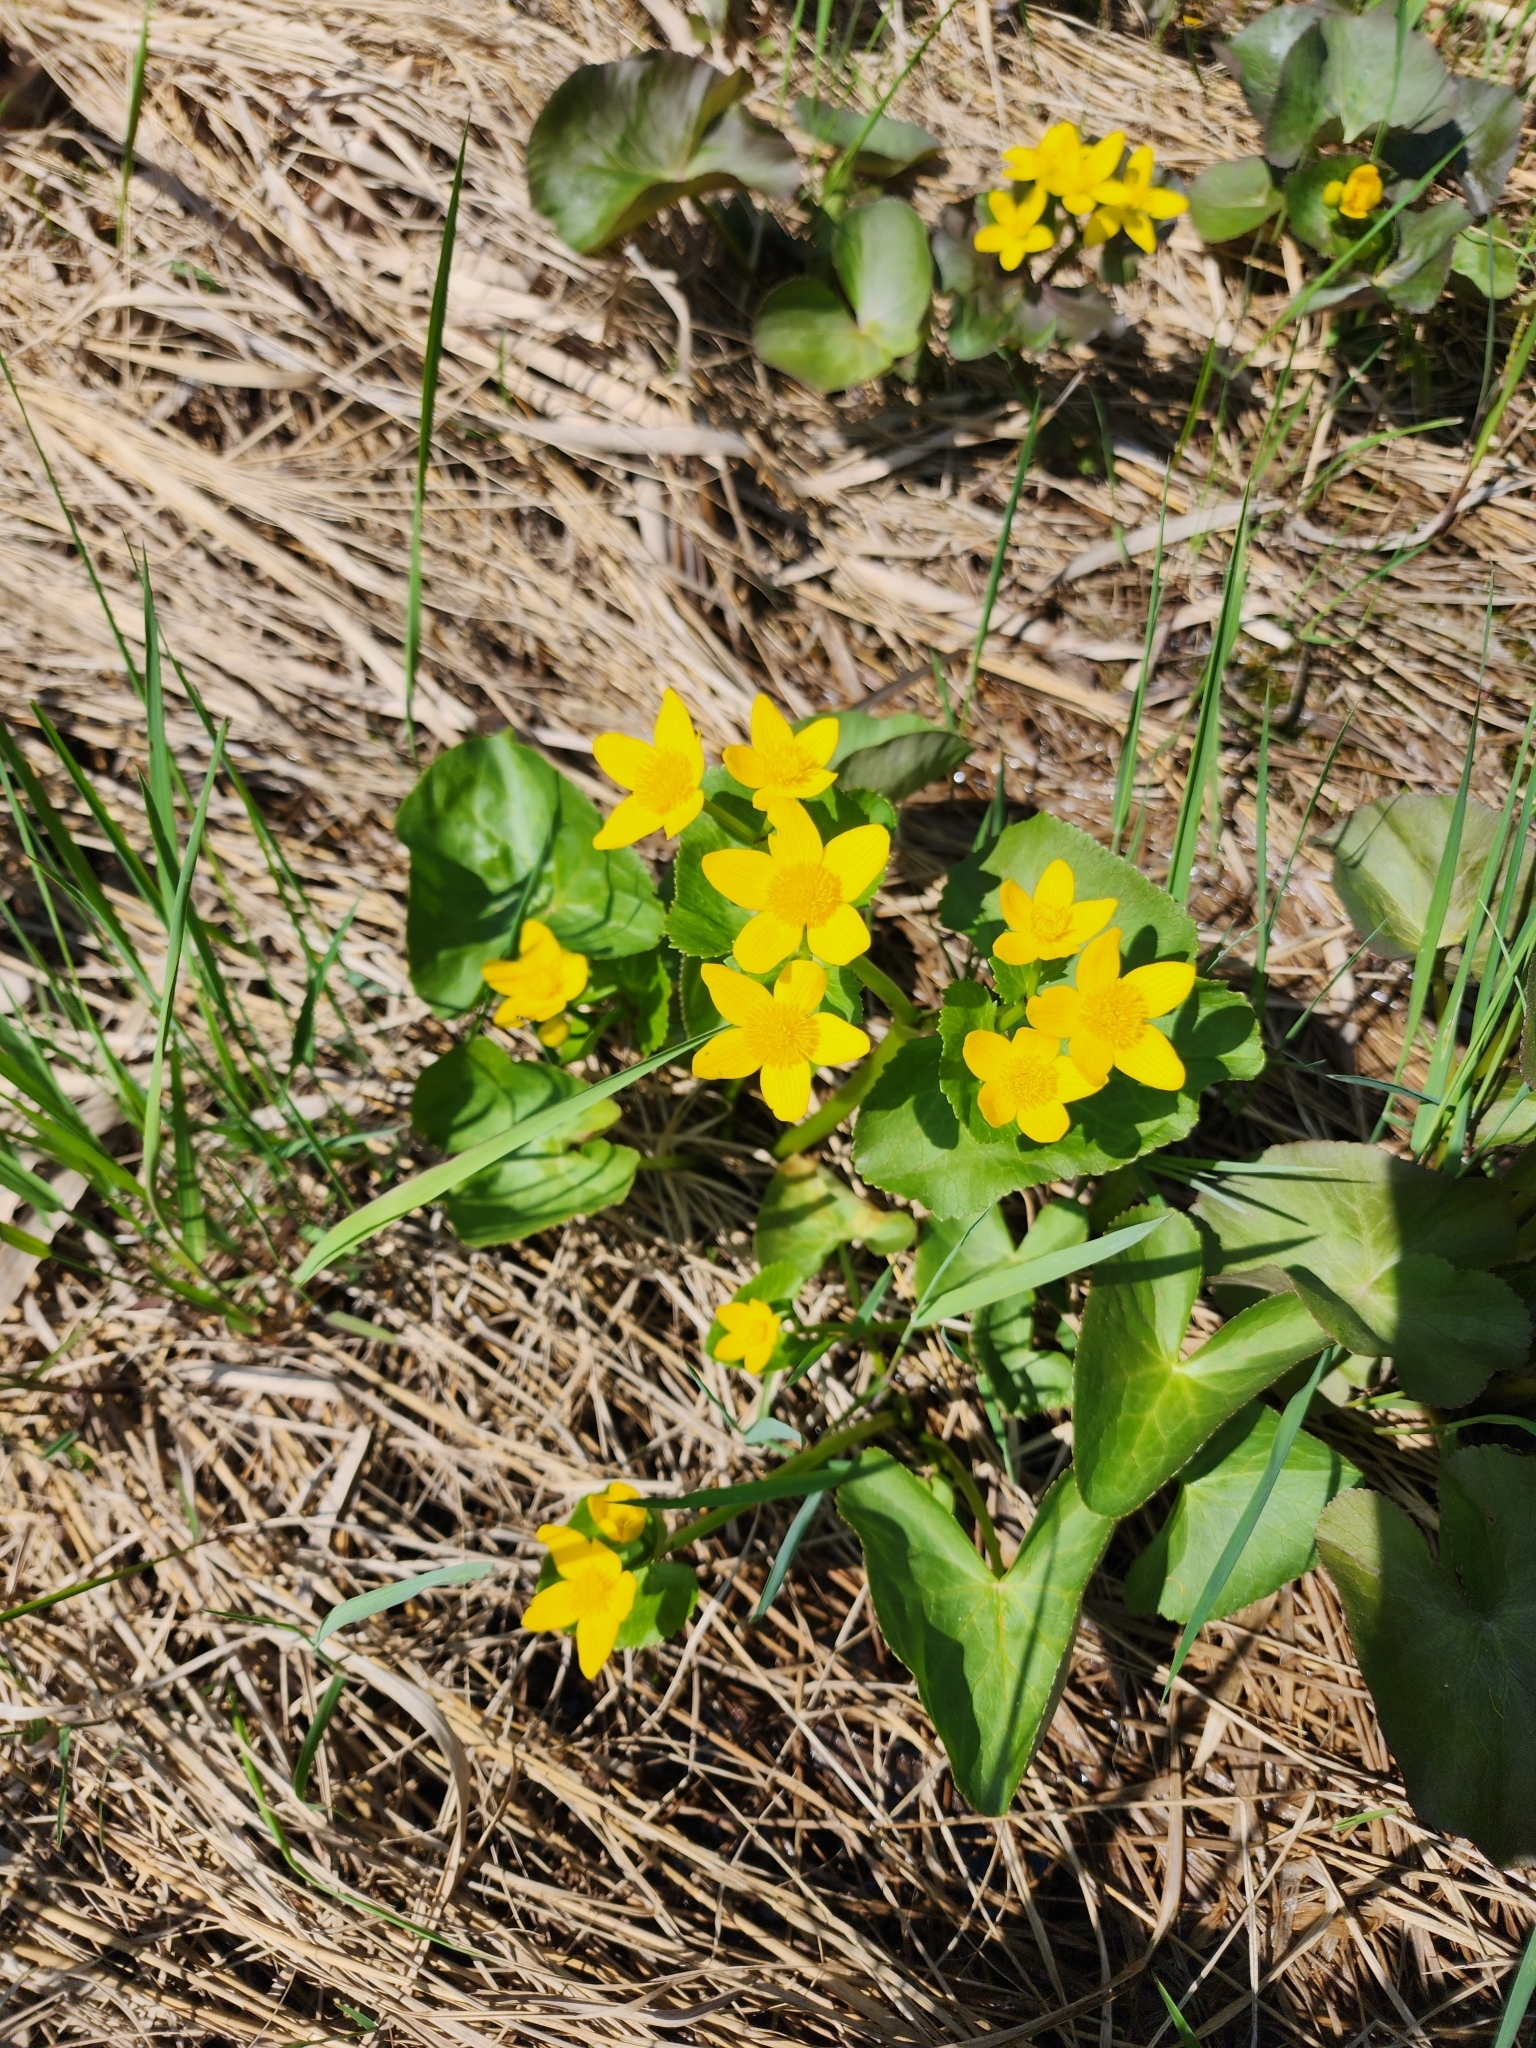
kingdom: Plantae
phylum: Tracheophyta
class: Magnoliopsida
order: Ranunculales
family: Ranunculaceae
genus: Caltha
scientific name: Caltha palustris
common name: Marsh marigold
